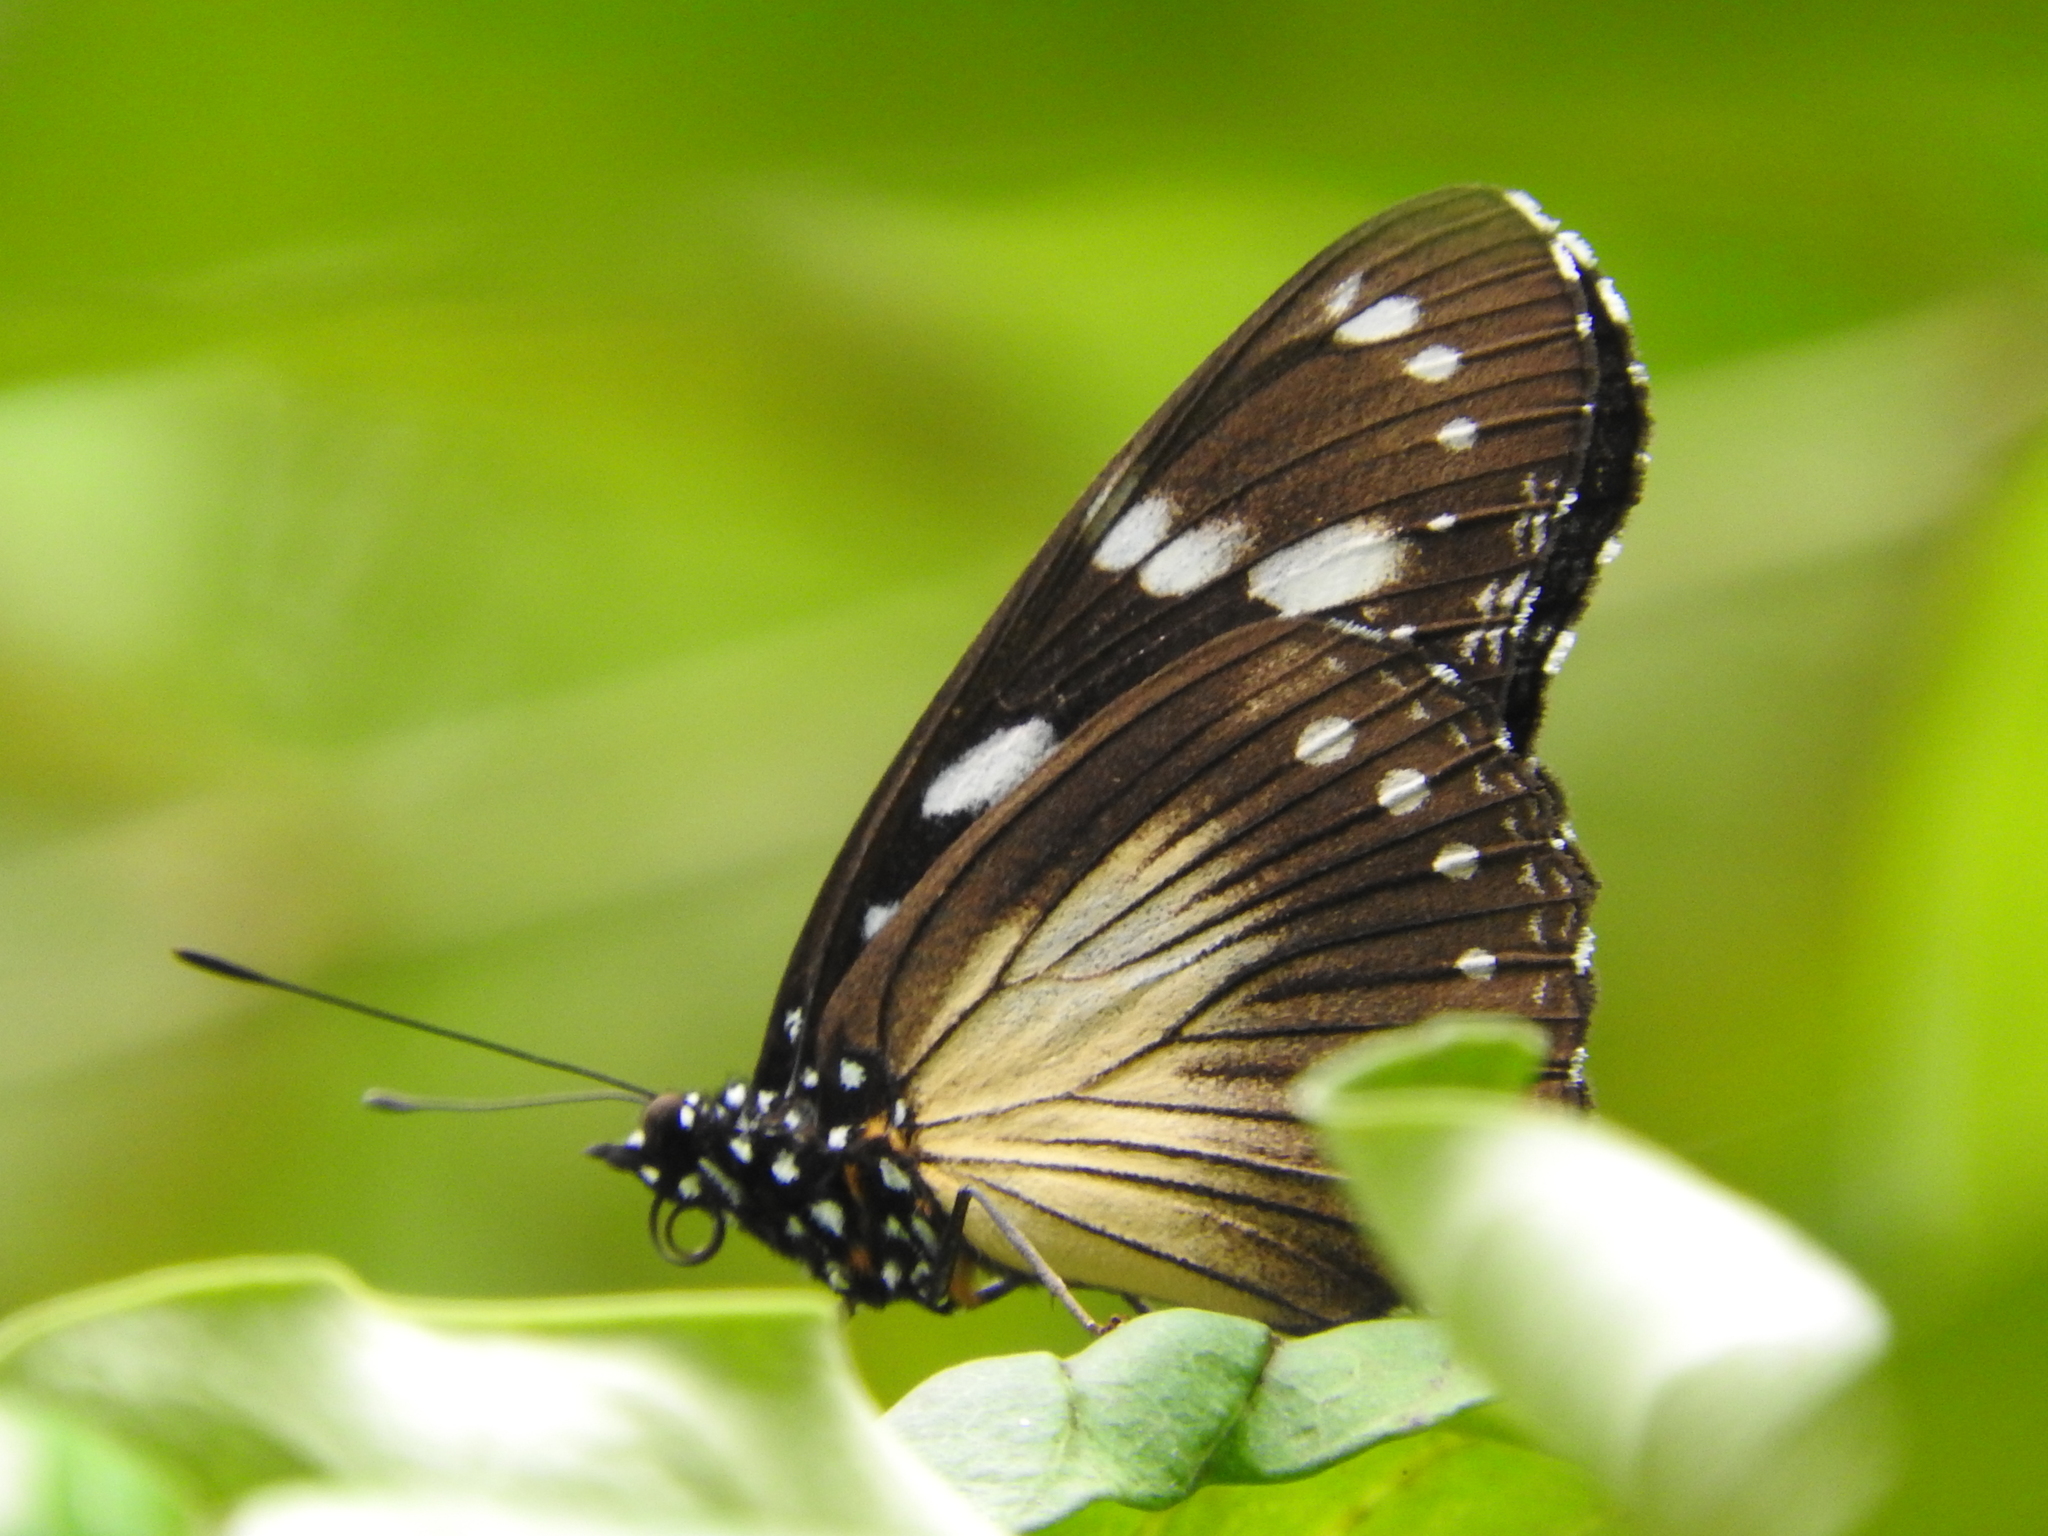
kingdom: Animalia
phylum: Arthropoda
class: Insecta
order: Lepidoptera
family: Nymphalidae
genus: Hypolimnas
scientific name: Hypolimnas dubius
